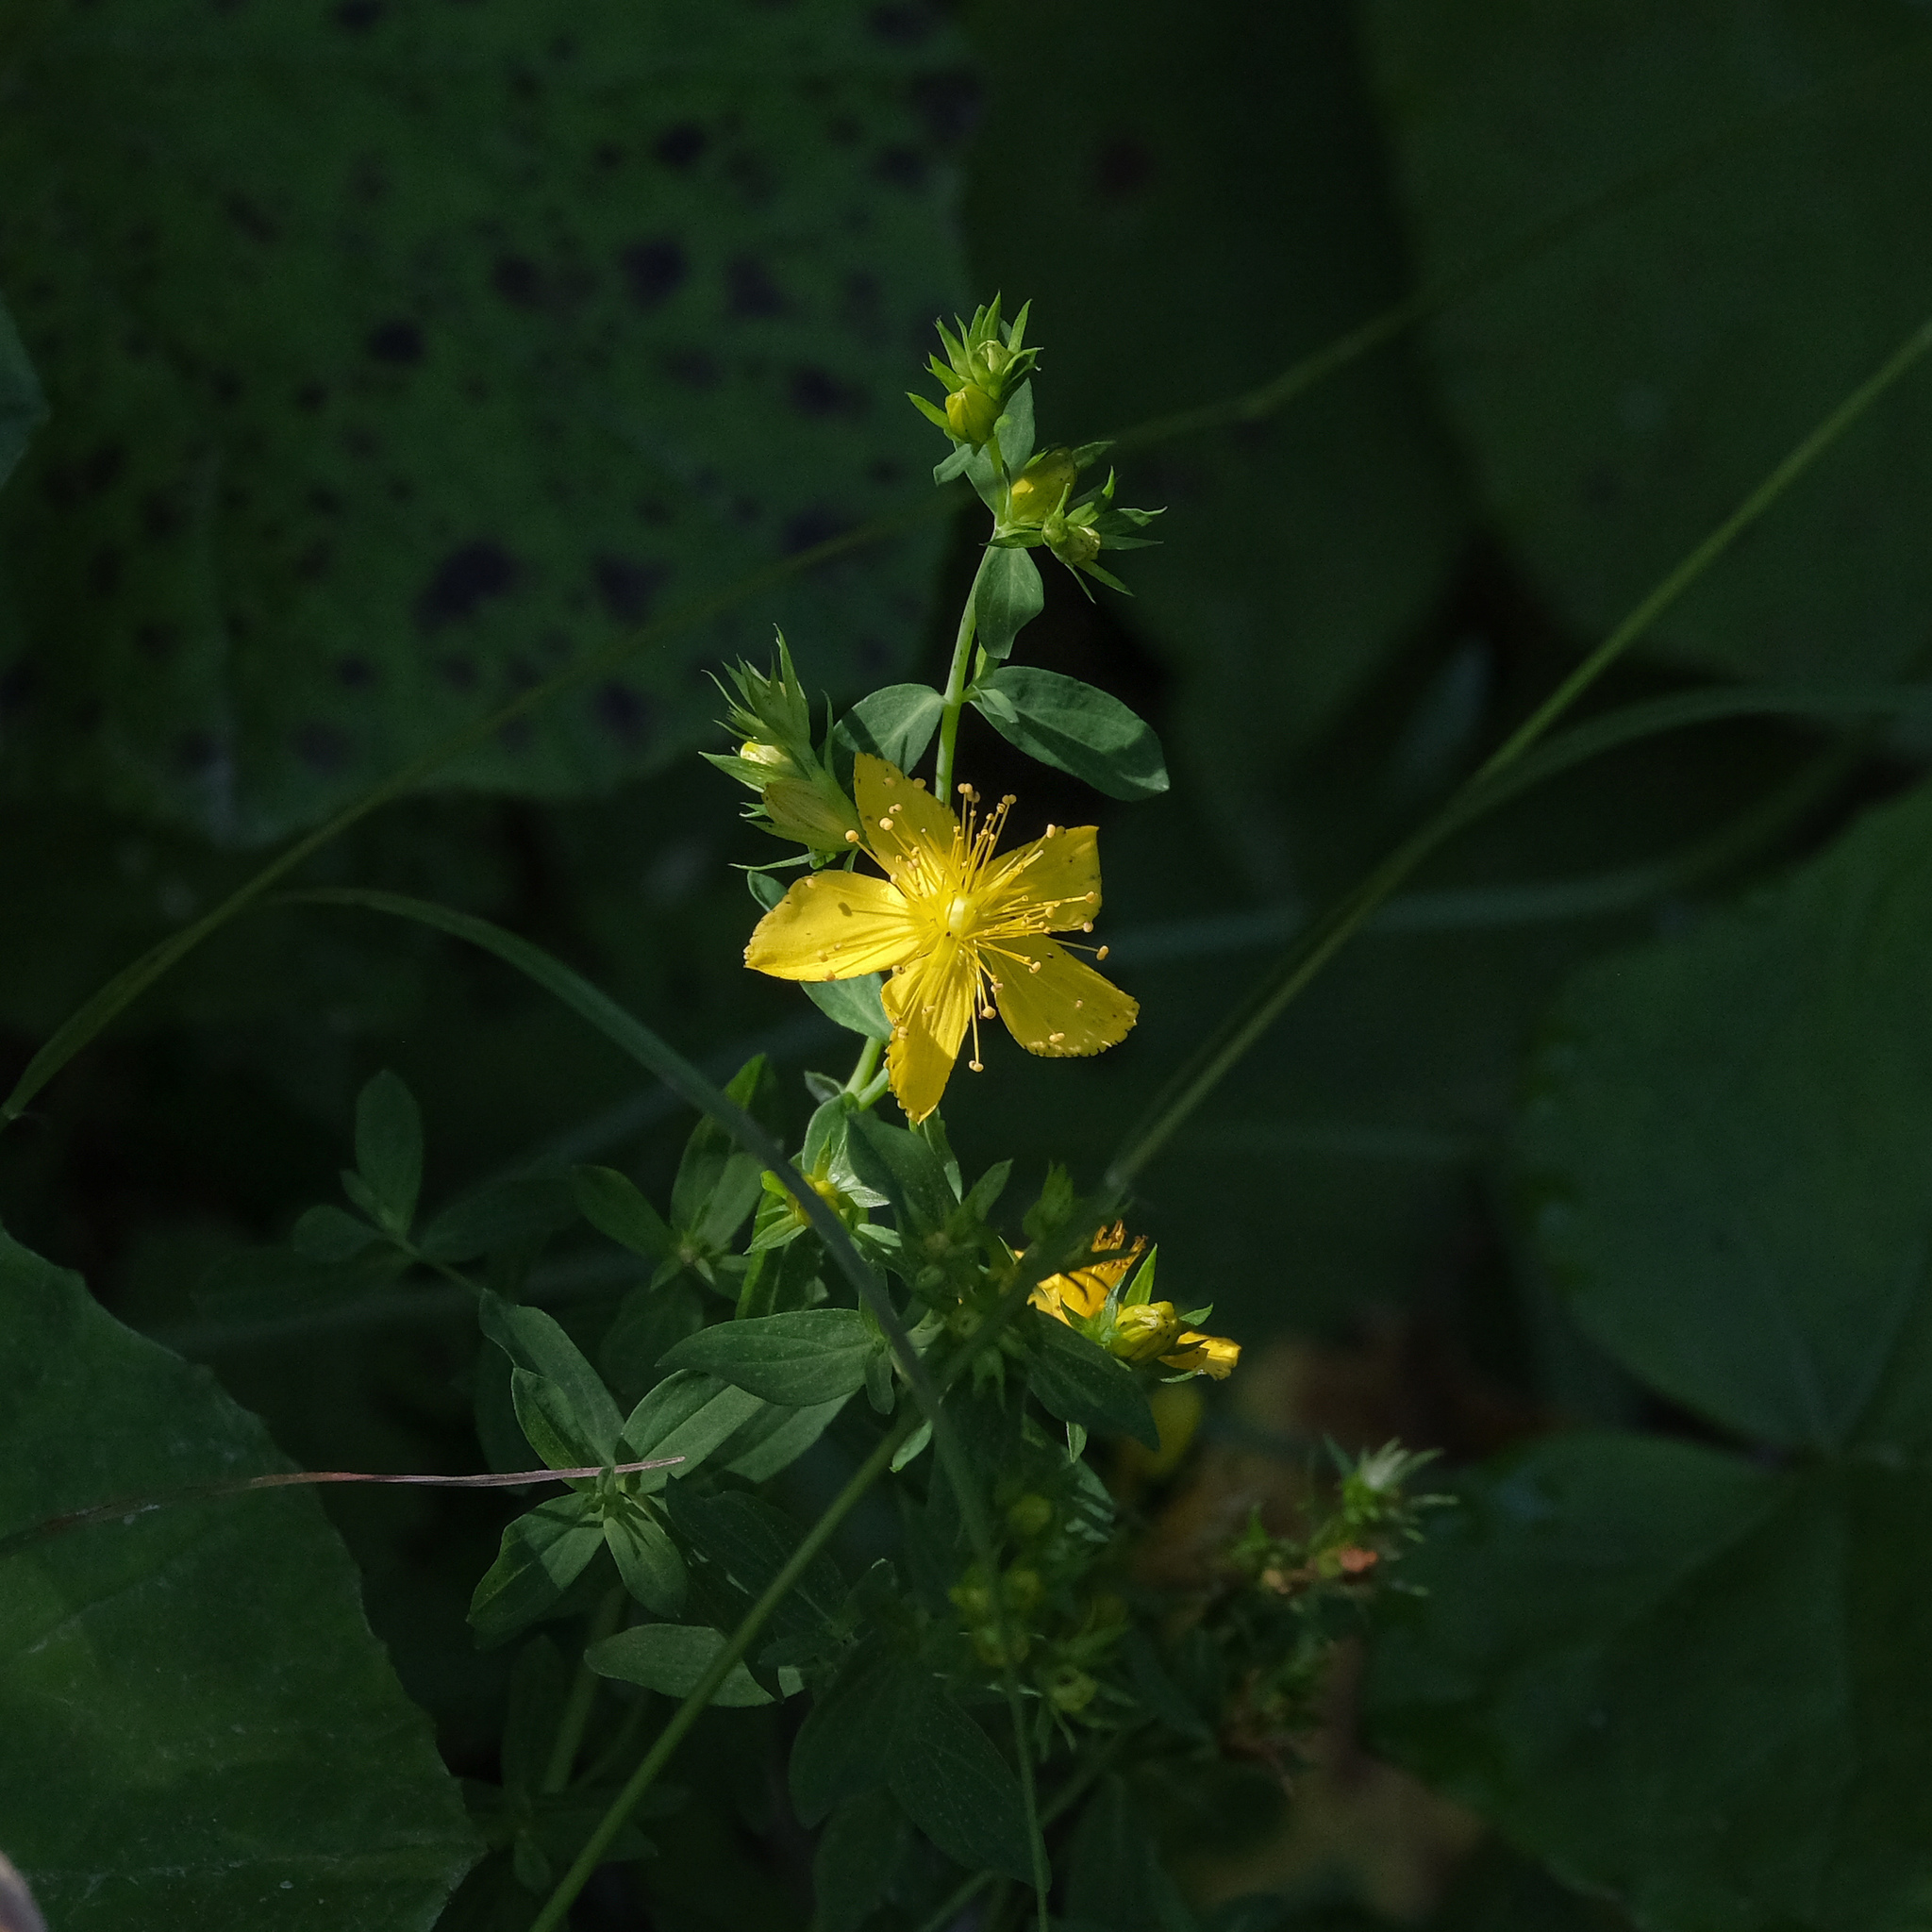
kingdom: Plantae
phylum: Tracheophyta
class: Magnoliopsida
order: Malpighiales
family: Hypericaceae
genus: Hypericum
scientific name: Hypericum perforatum
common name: Common st. johnswort
